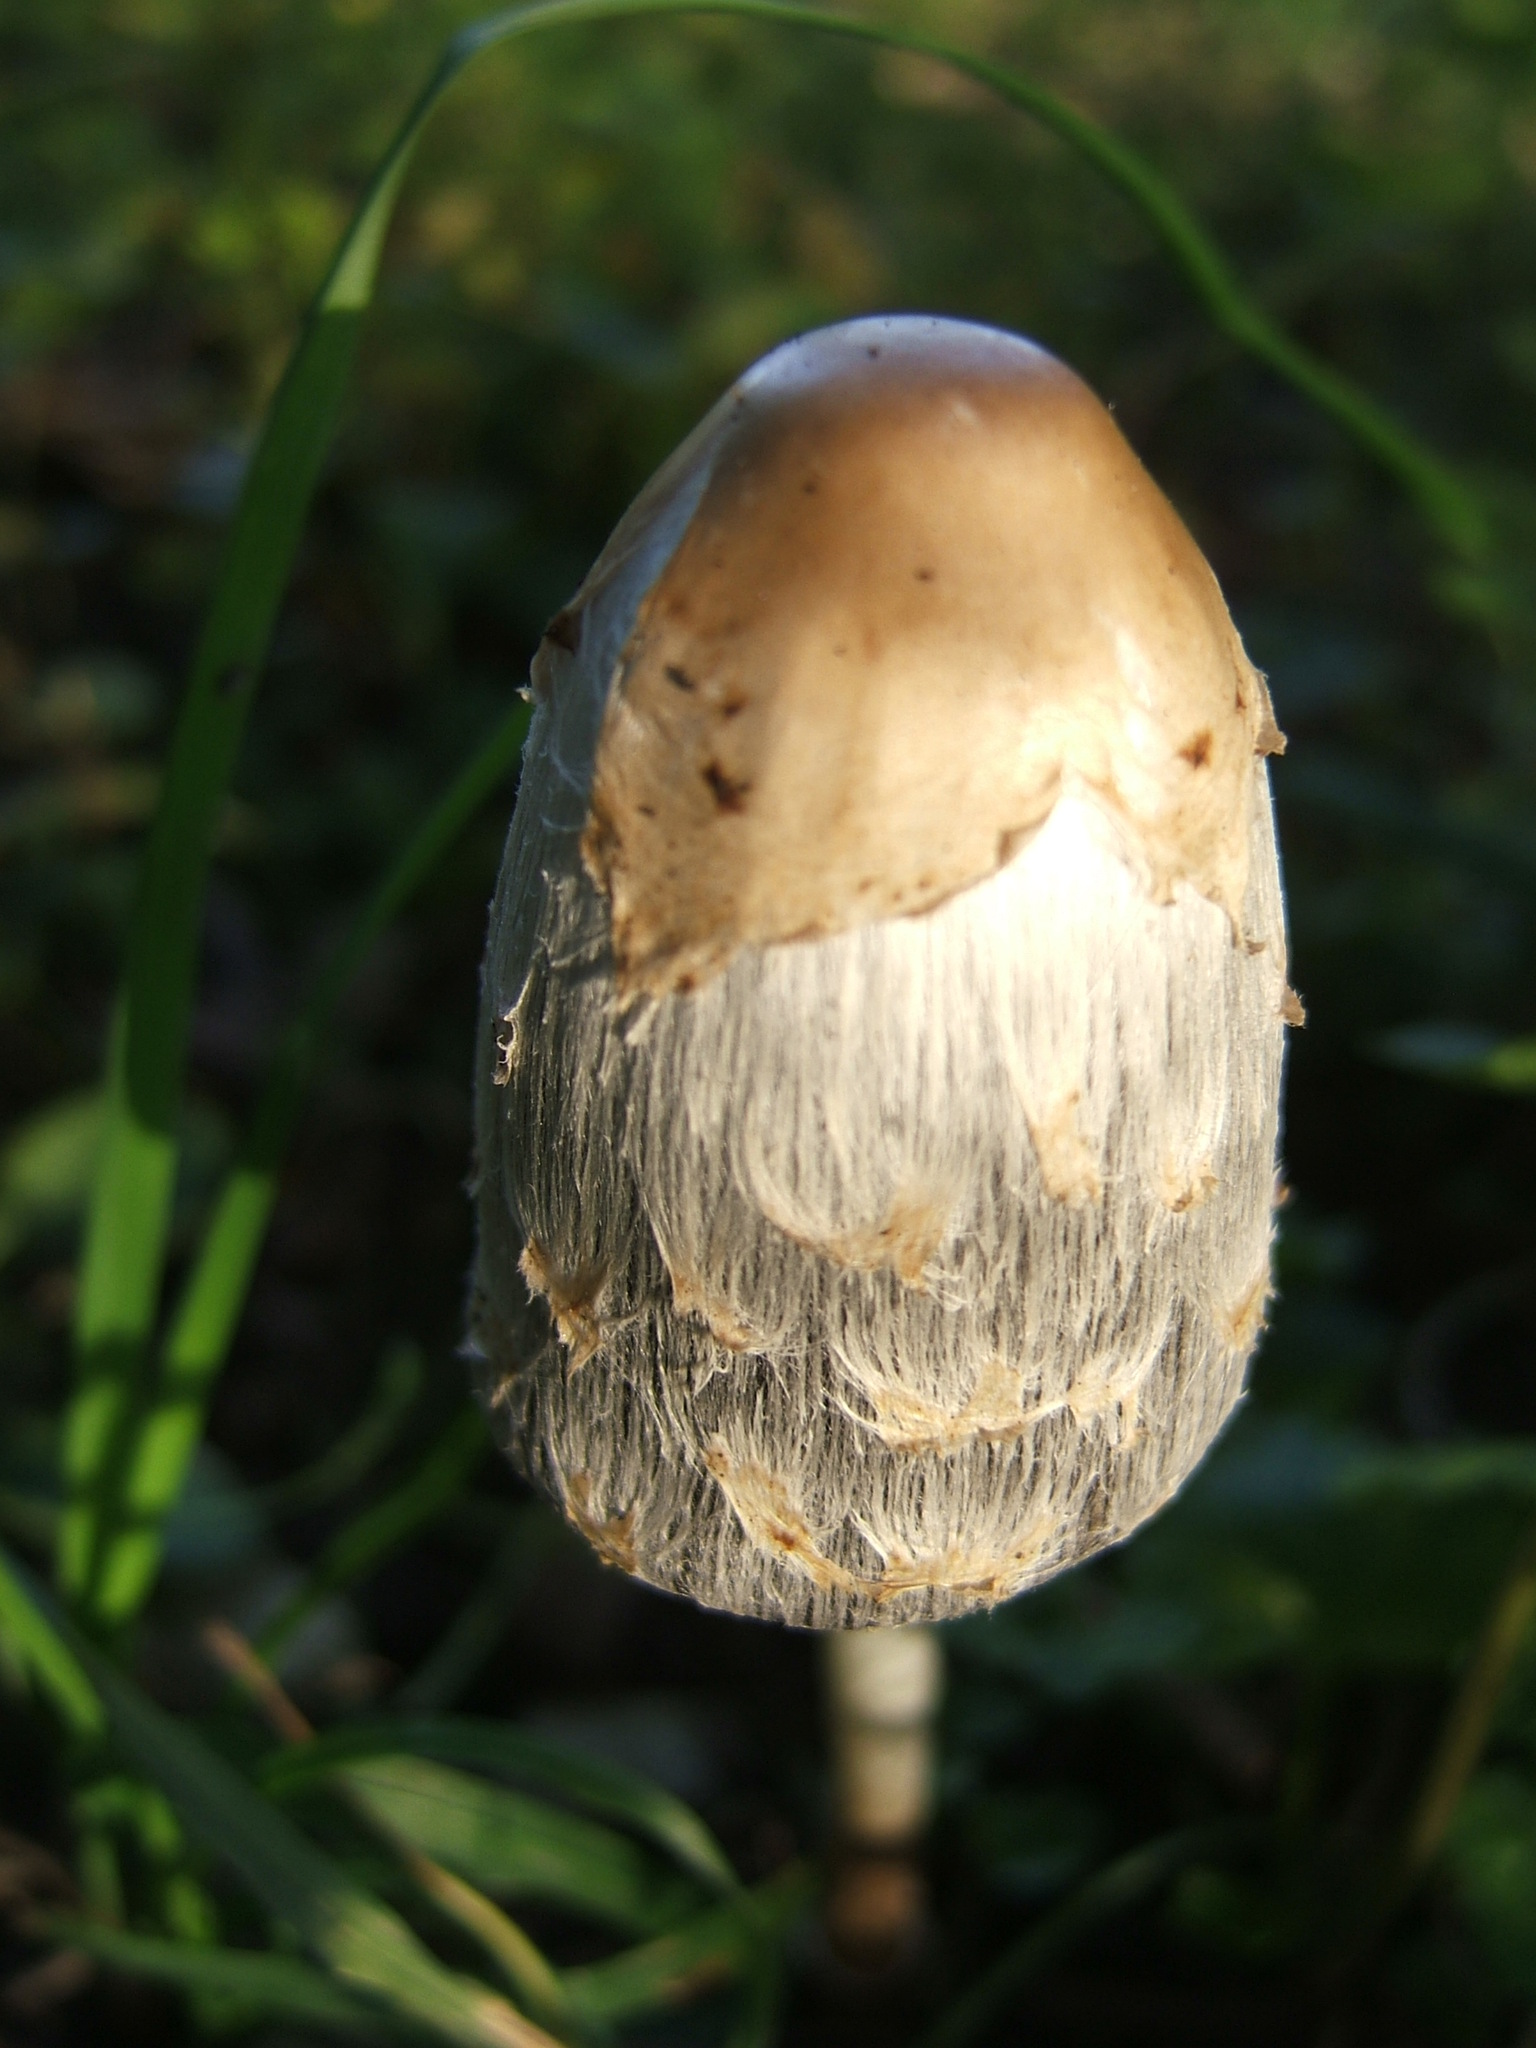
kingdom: Fungi
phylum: Basidiomycota
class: Agaricomycetes
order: Agaricales
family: Agaricaceae
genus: Coprinus
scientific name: Coprinus comatus
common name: Lawyer's wig
